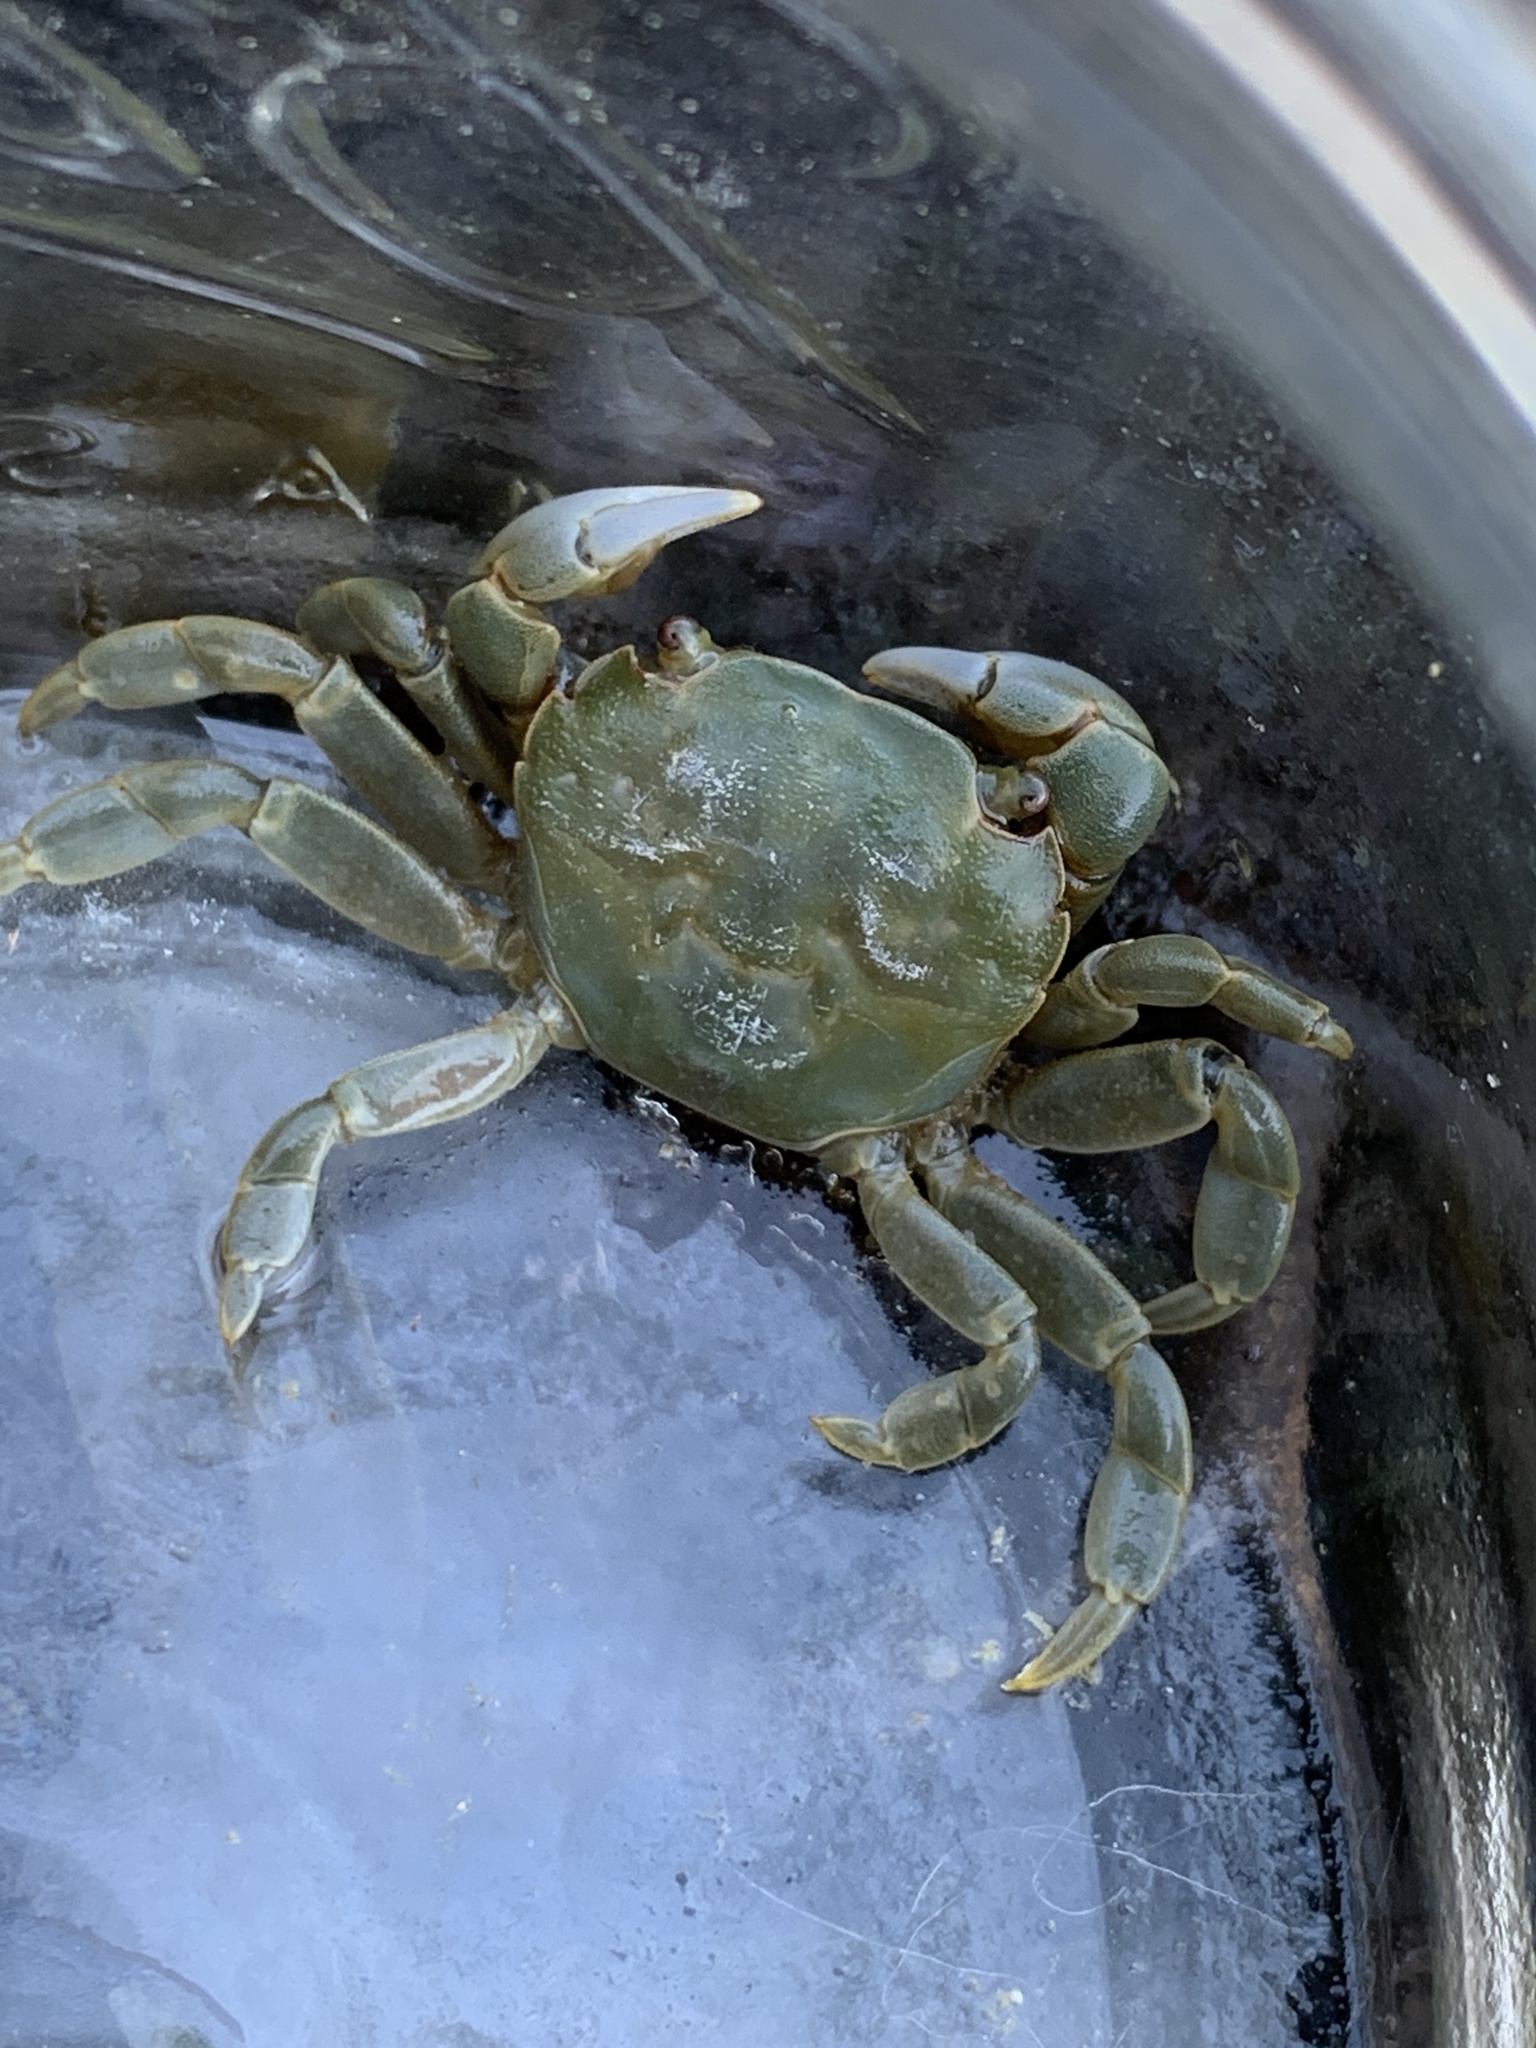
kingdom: Animalia
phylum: Arthropoda
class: Malacostraca
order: Decapoda
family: Varunidae
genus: Hemigrapsus
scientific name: Hemigrapsus nudus
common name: Purple shore crab
